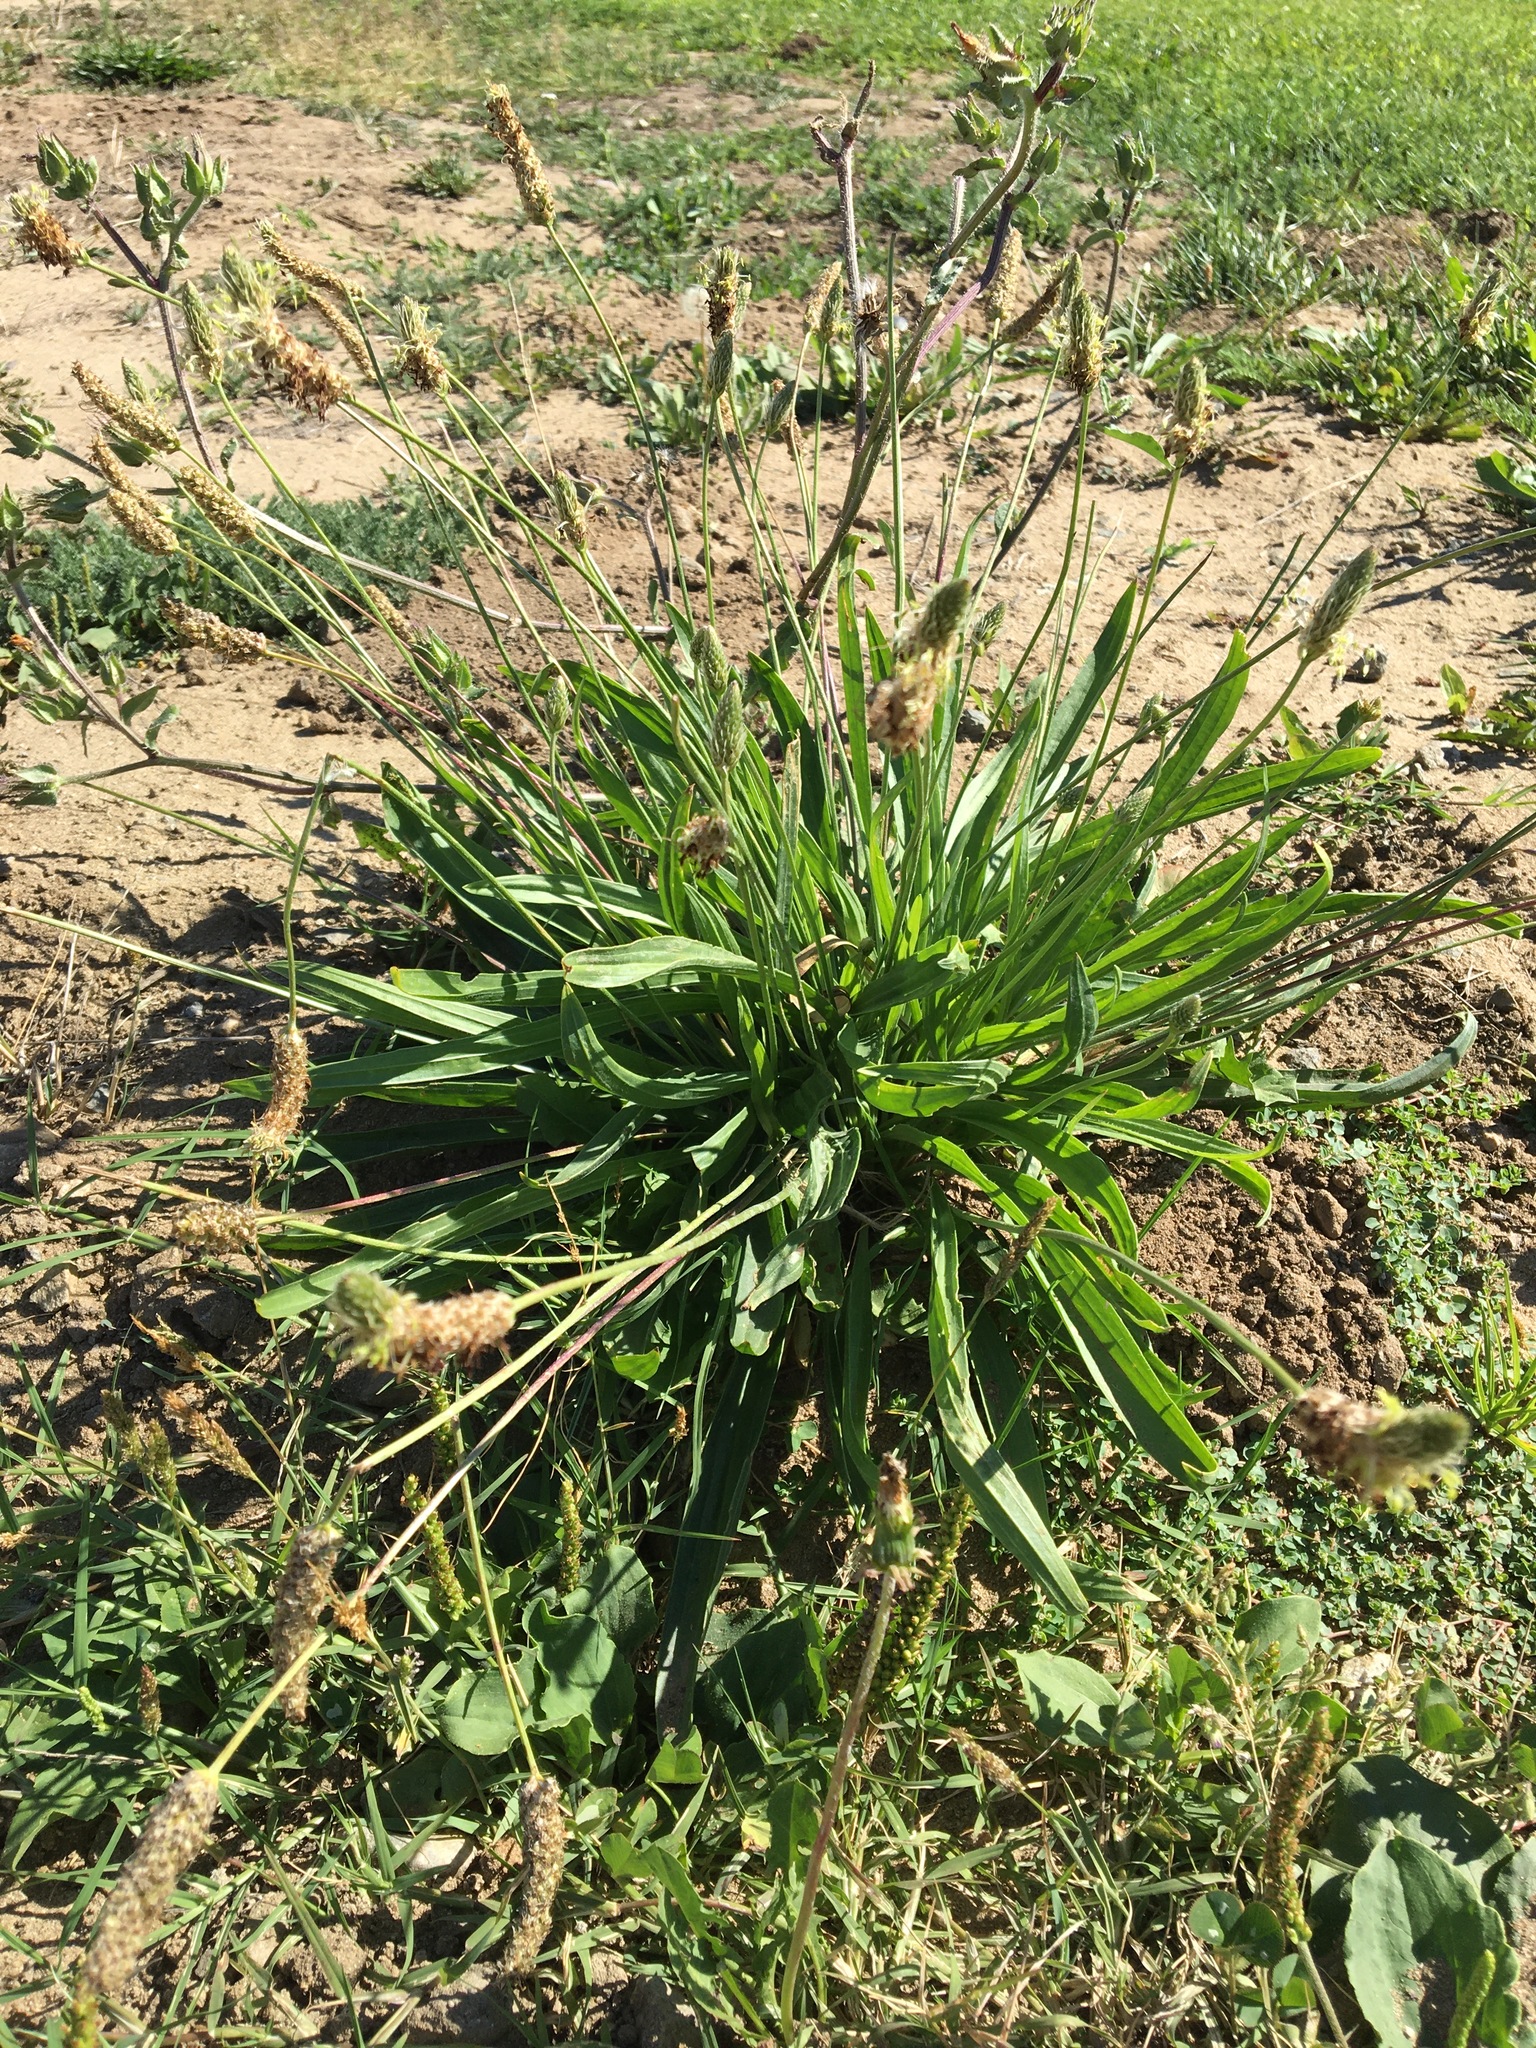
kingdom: Plantae
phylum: Tracheophyta
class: Magnoliopsida
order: Lamiales
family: Plantaginaceae
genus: Plantago
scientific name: Plantago lanceolata
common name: Ribwort plantain
